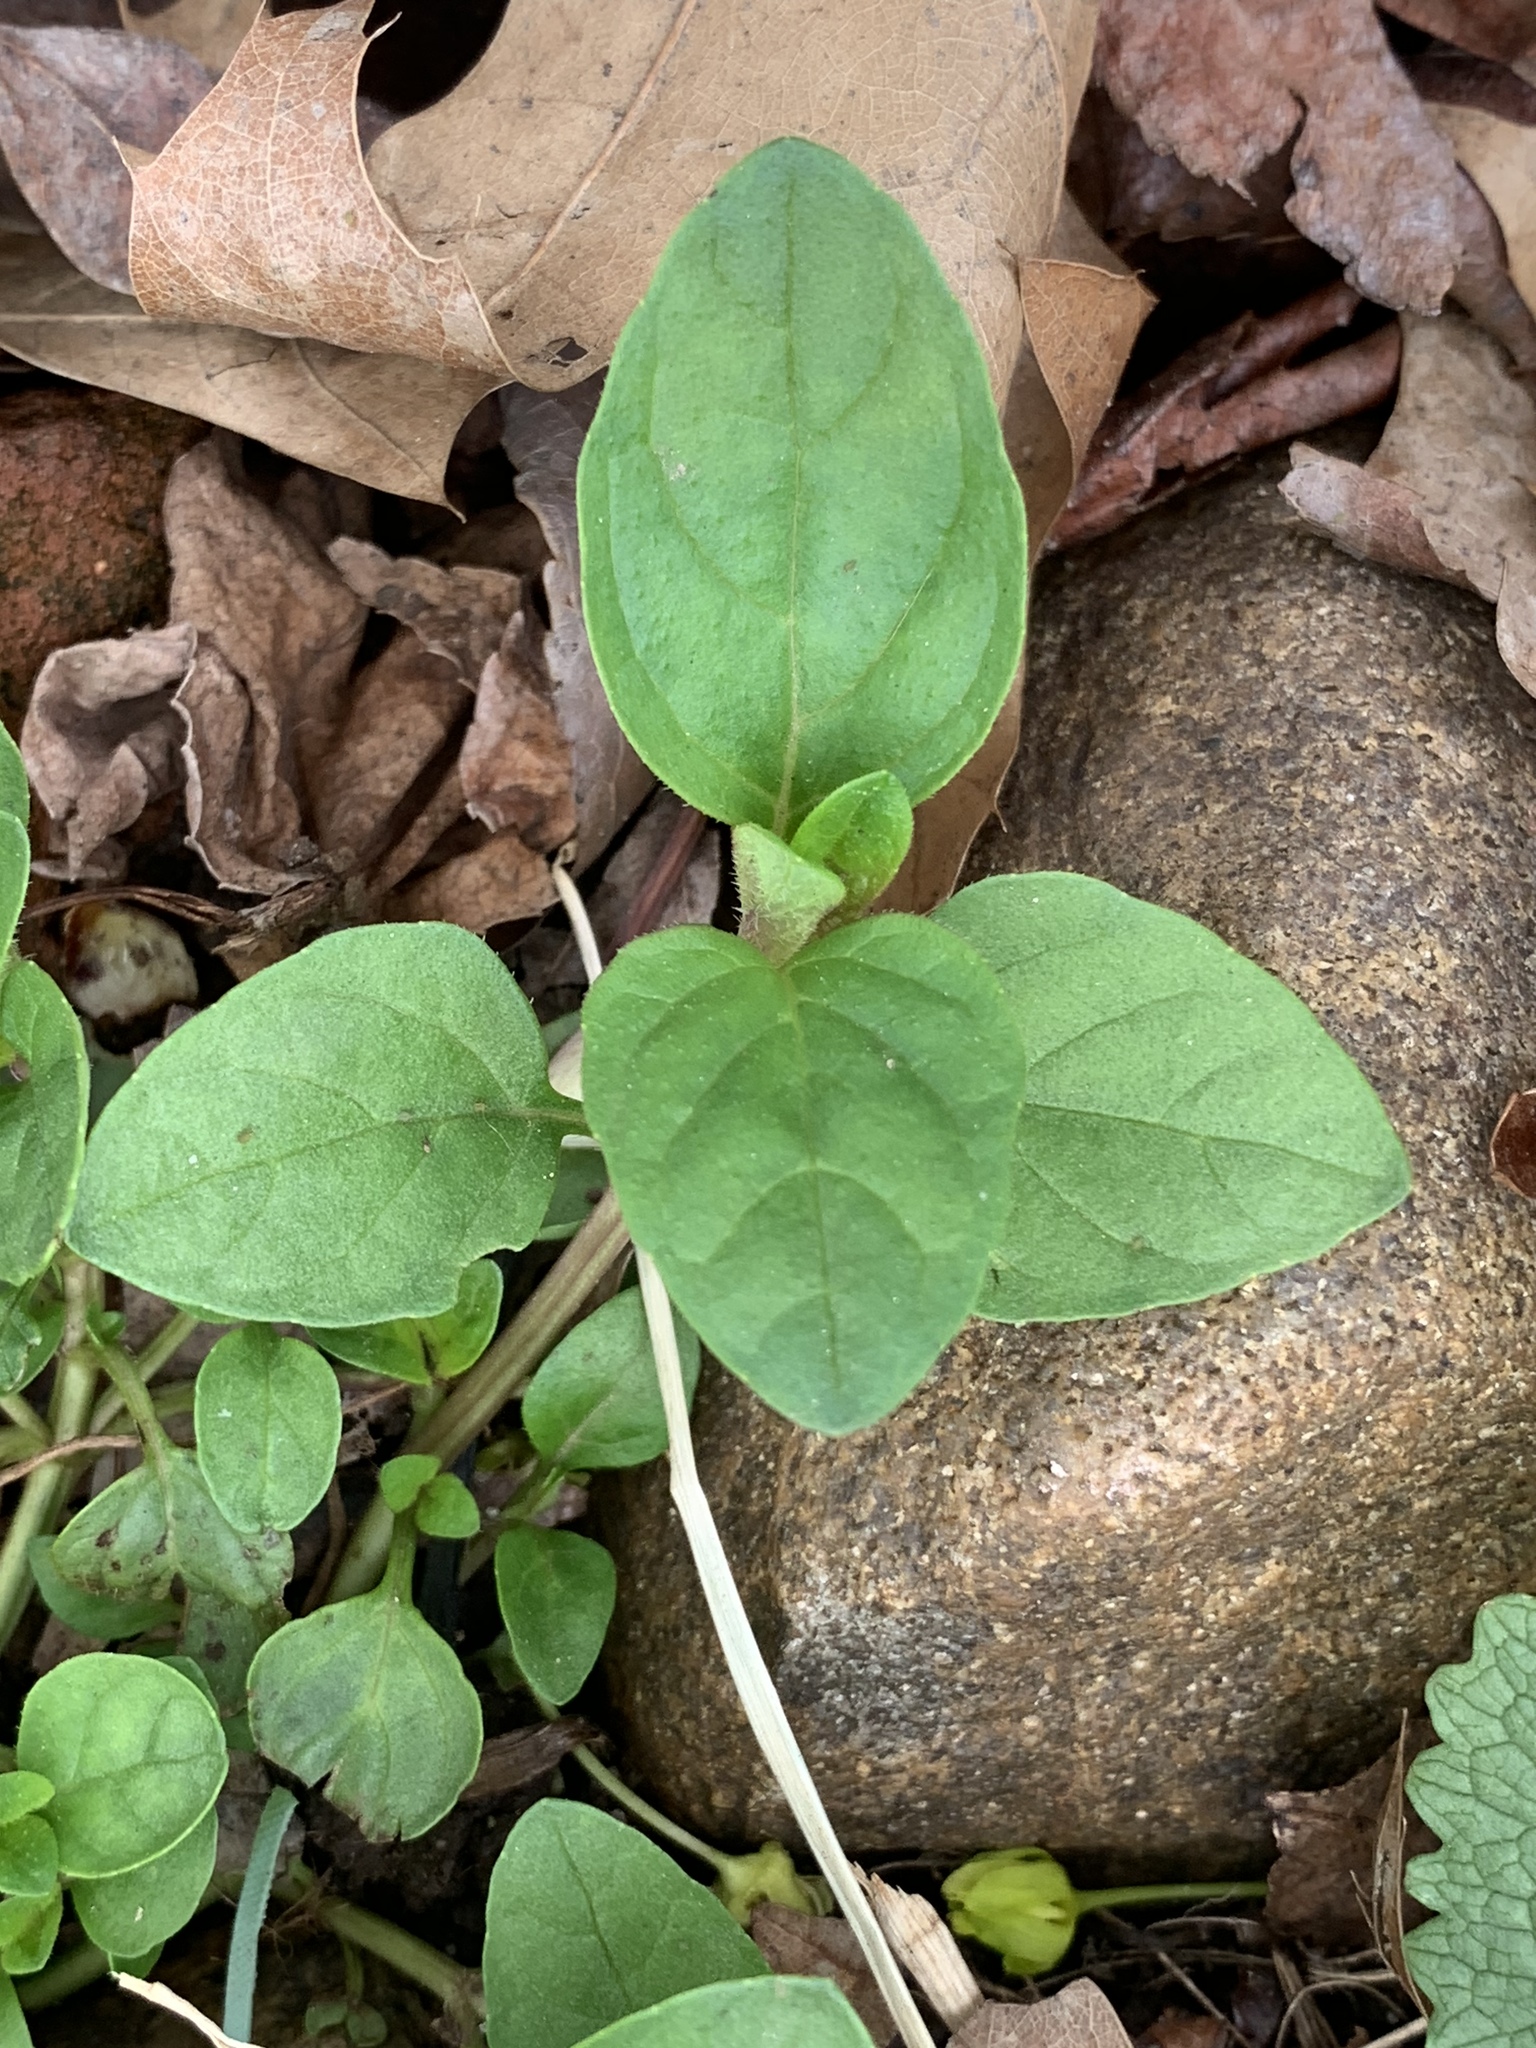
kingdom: Plantae
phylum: Tracheophyta
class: Magnoliopsida
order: Lamiales
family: Lamiaceae
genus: Prunella
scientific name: Prunella vulgaris
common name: Heal-all
